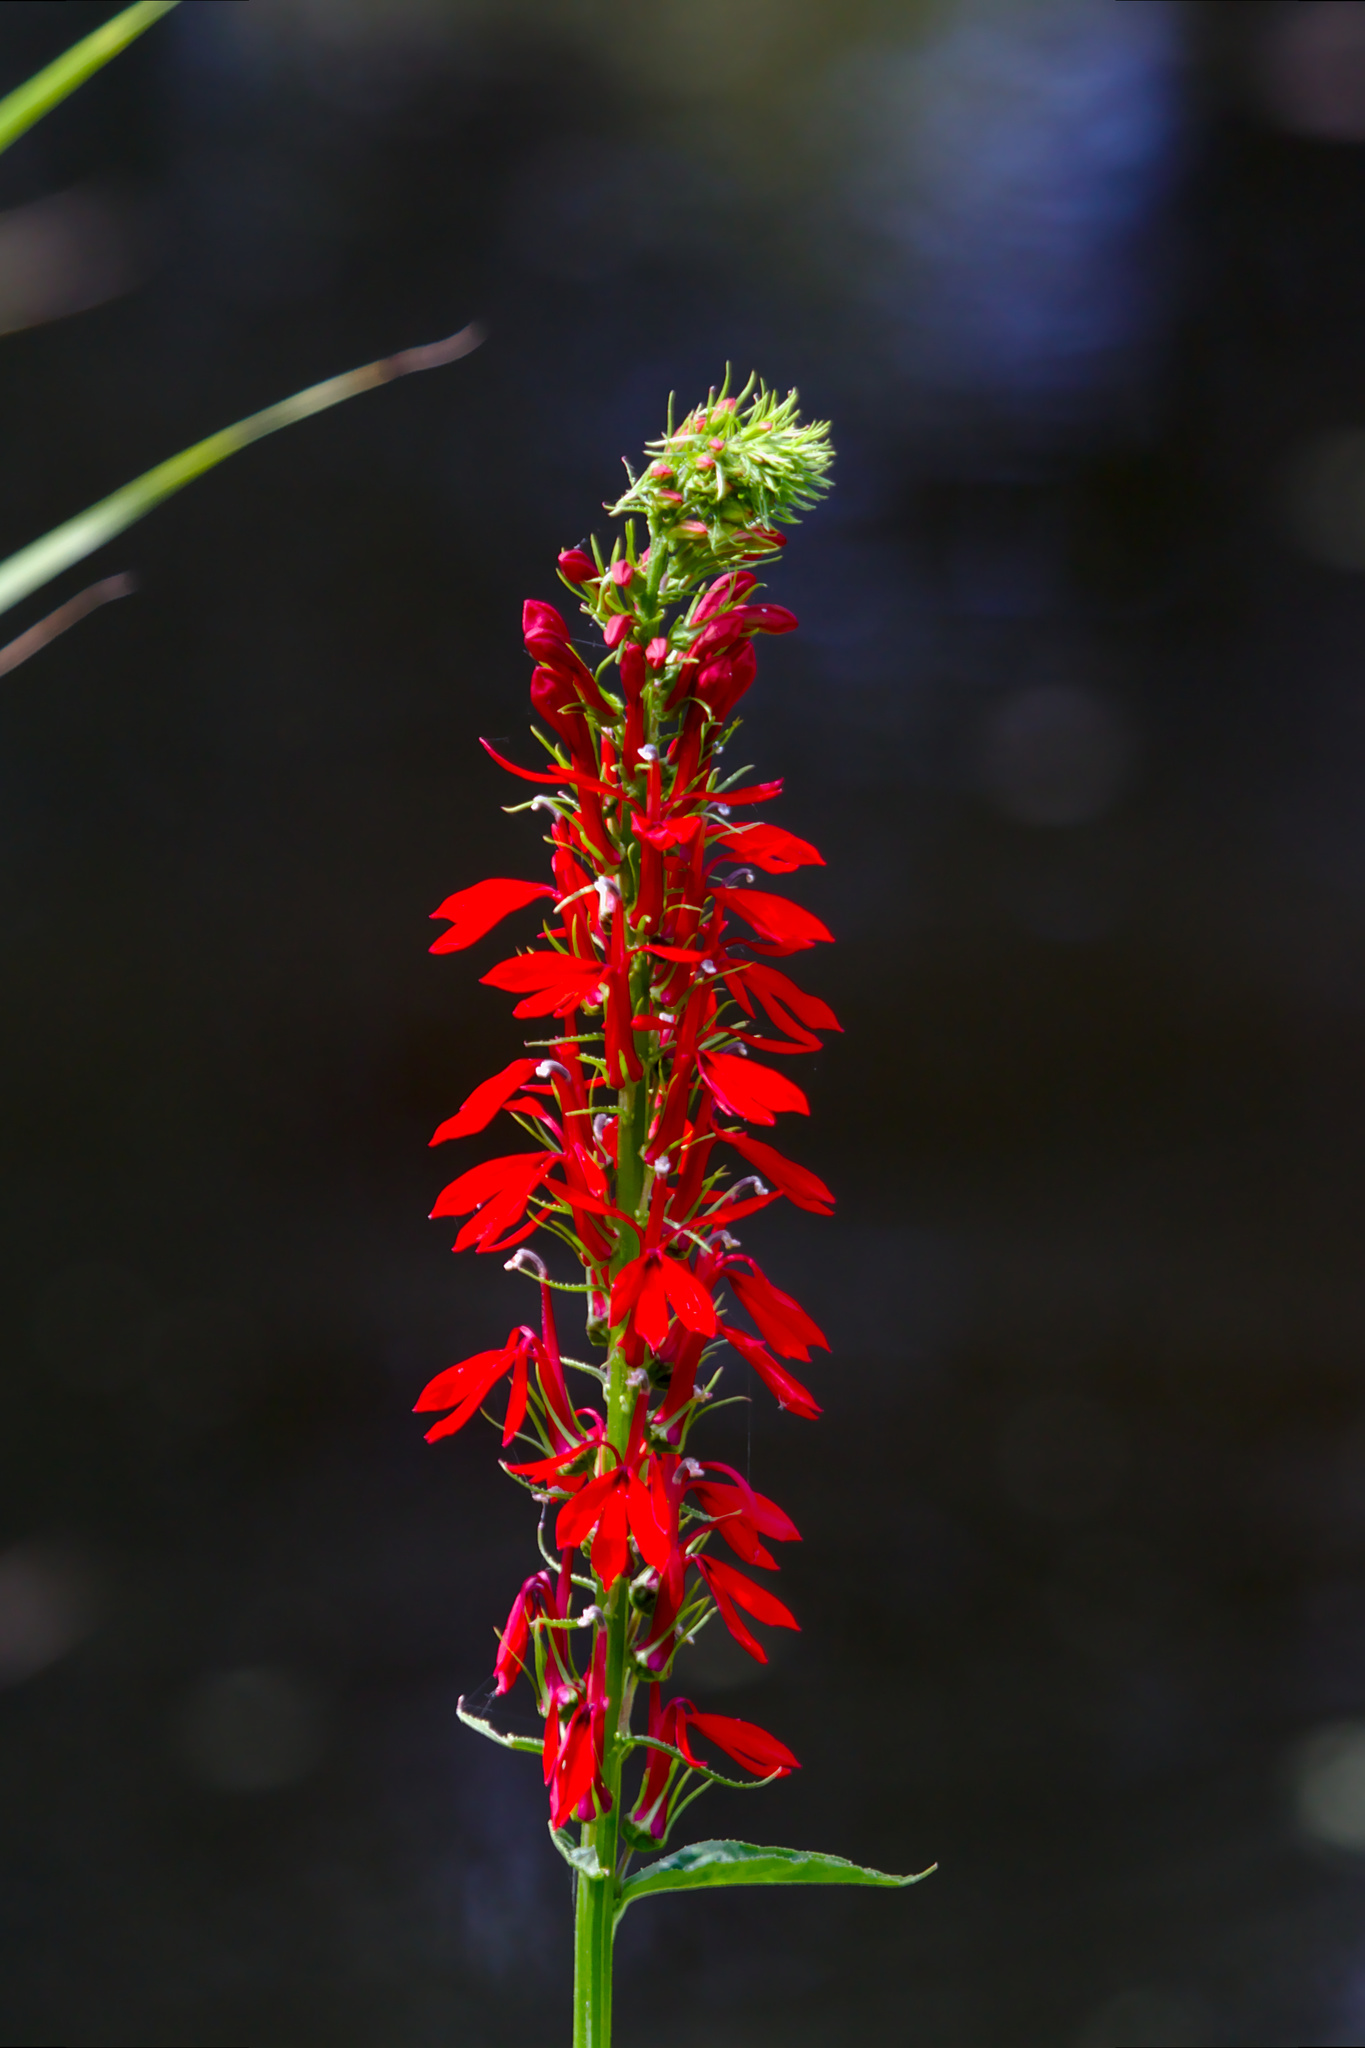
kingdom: Plantae
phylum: Tracheophyta
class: Magnoliopsida
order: Asterales
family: Campanulaceae
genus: Lobelia
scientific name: Lobelia cardinalis
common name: Cardinal flower
